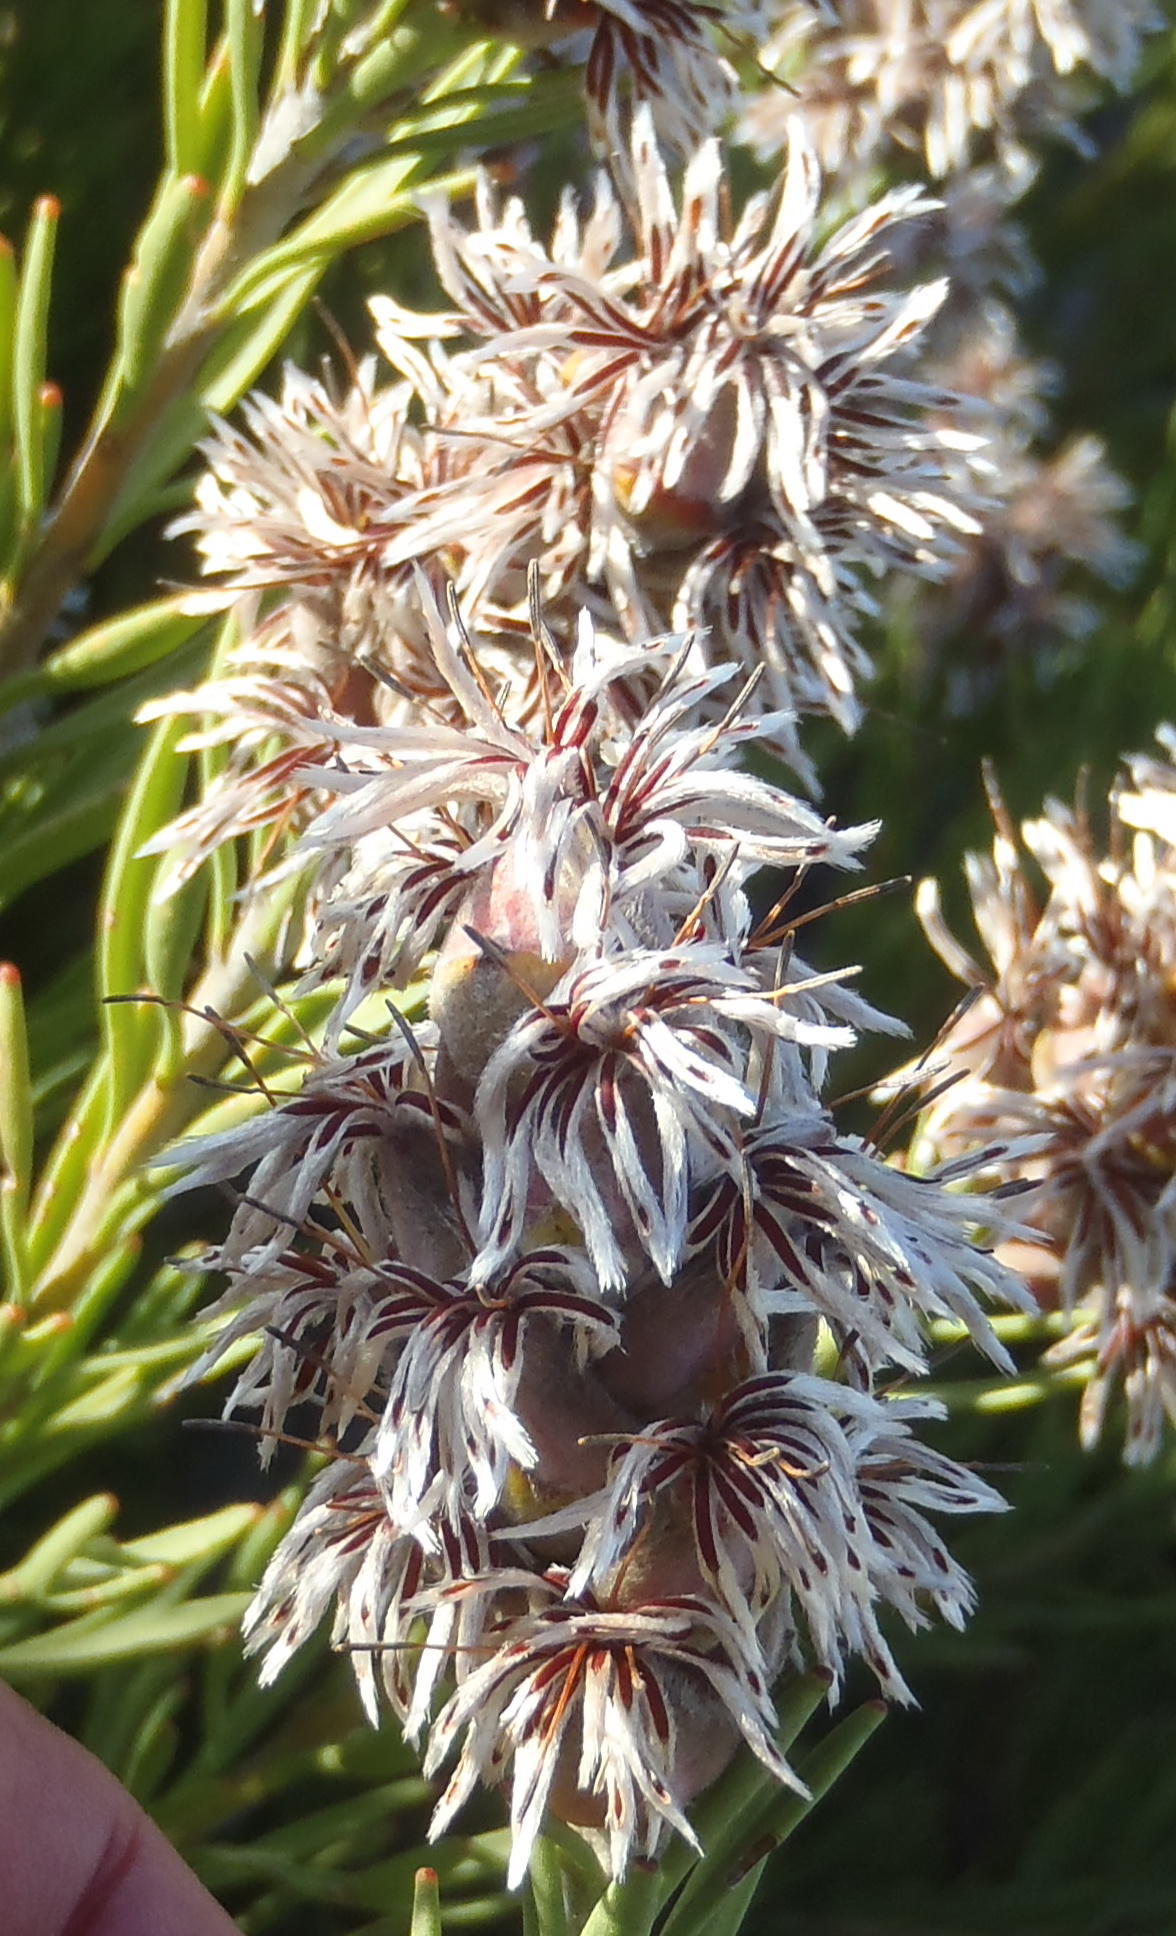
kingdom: Plantae
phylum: Tracheophyta
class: Magnoliopsida
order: Proteales
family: Proteaceae
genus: Paranomus
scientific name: Paranomus dregei
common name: Scented sceptre
